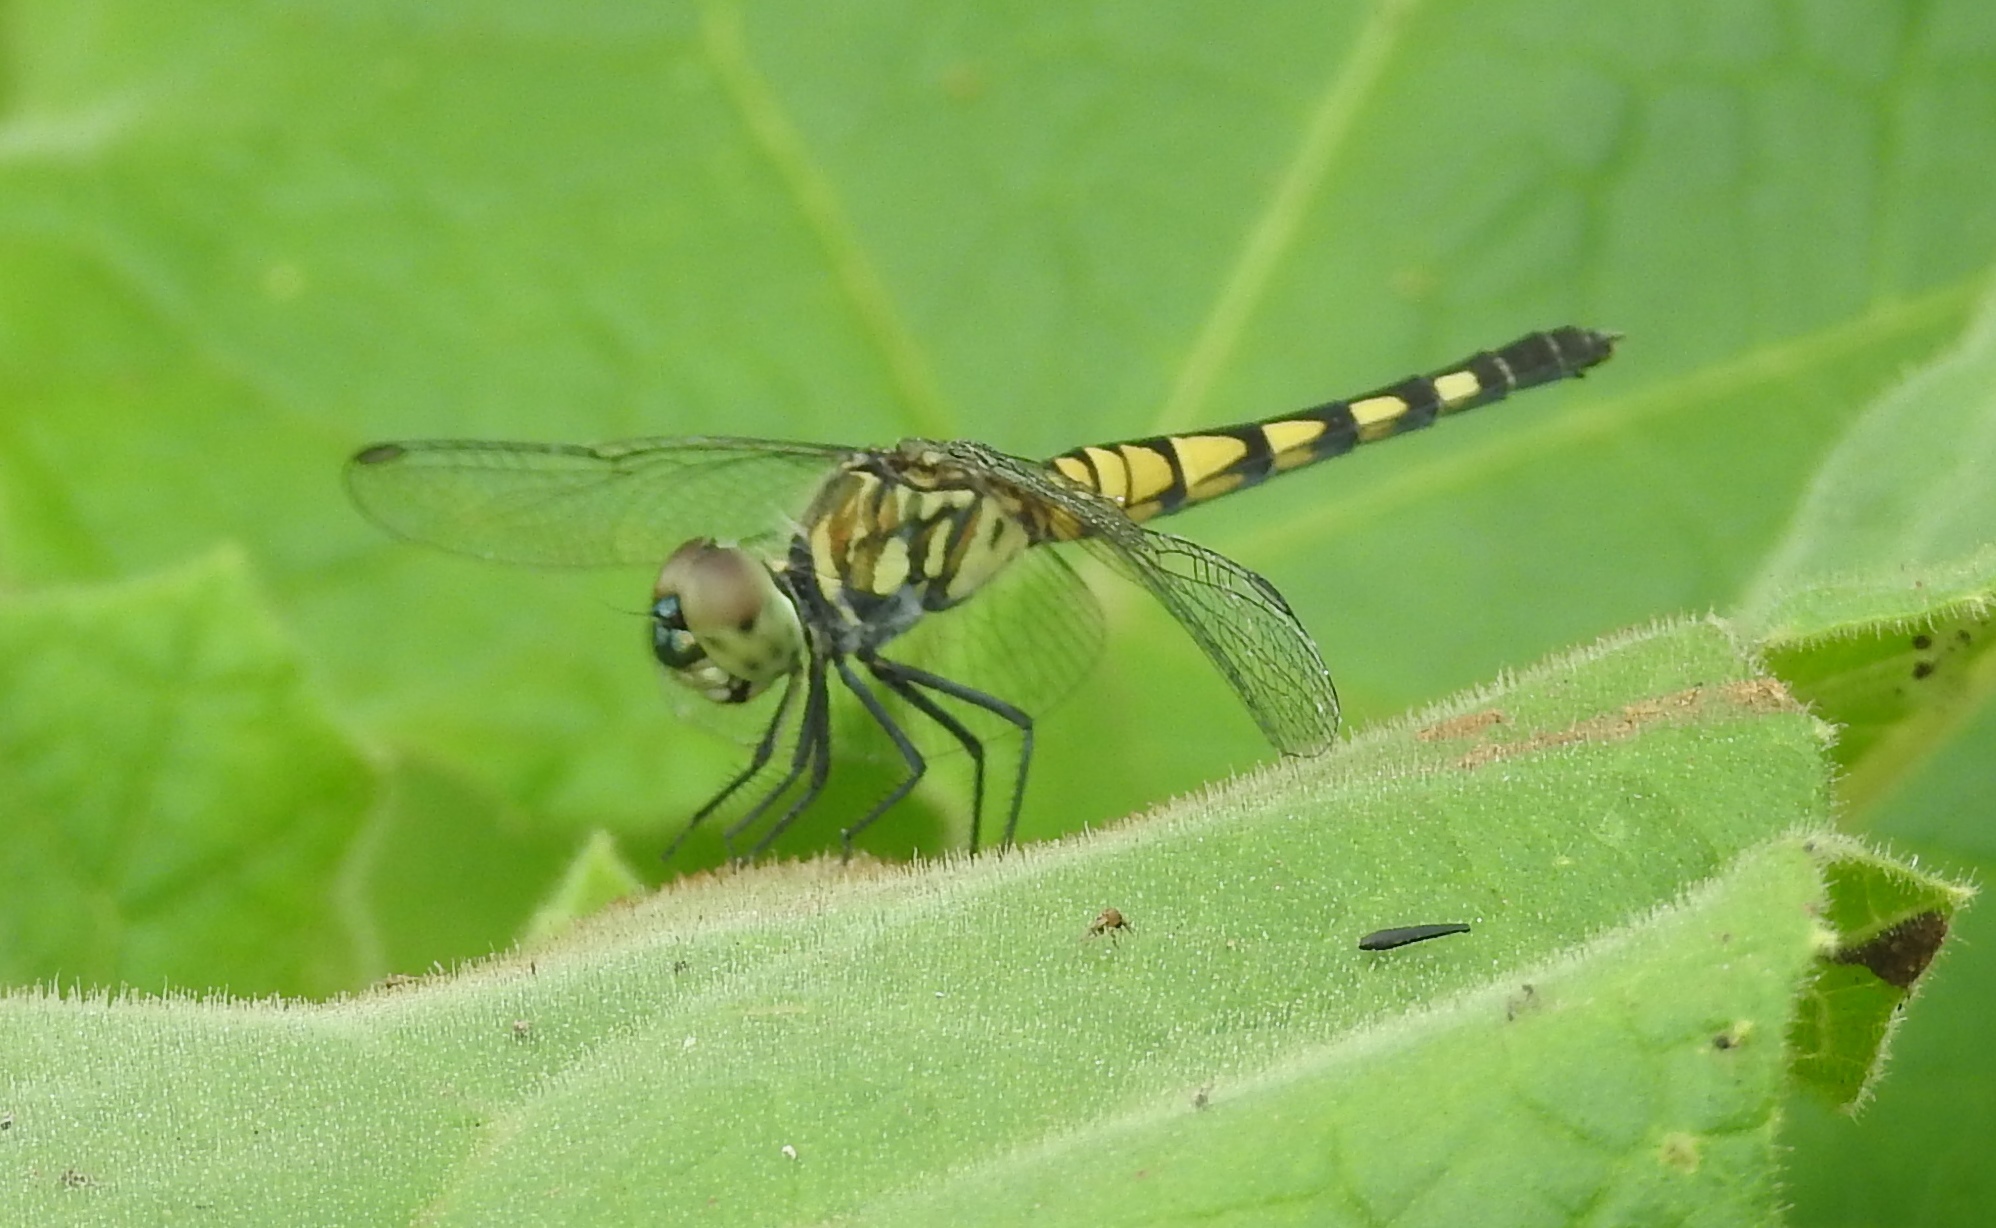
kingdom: Animalia
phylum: Arthropoda
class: Insecta
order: Odonata
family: Libellulidae
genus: Brachydiplax
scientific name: Brachydiplax sobrina
